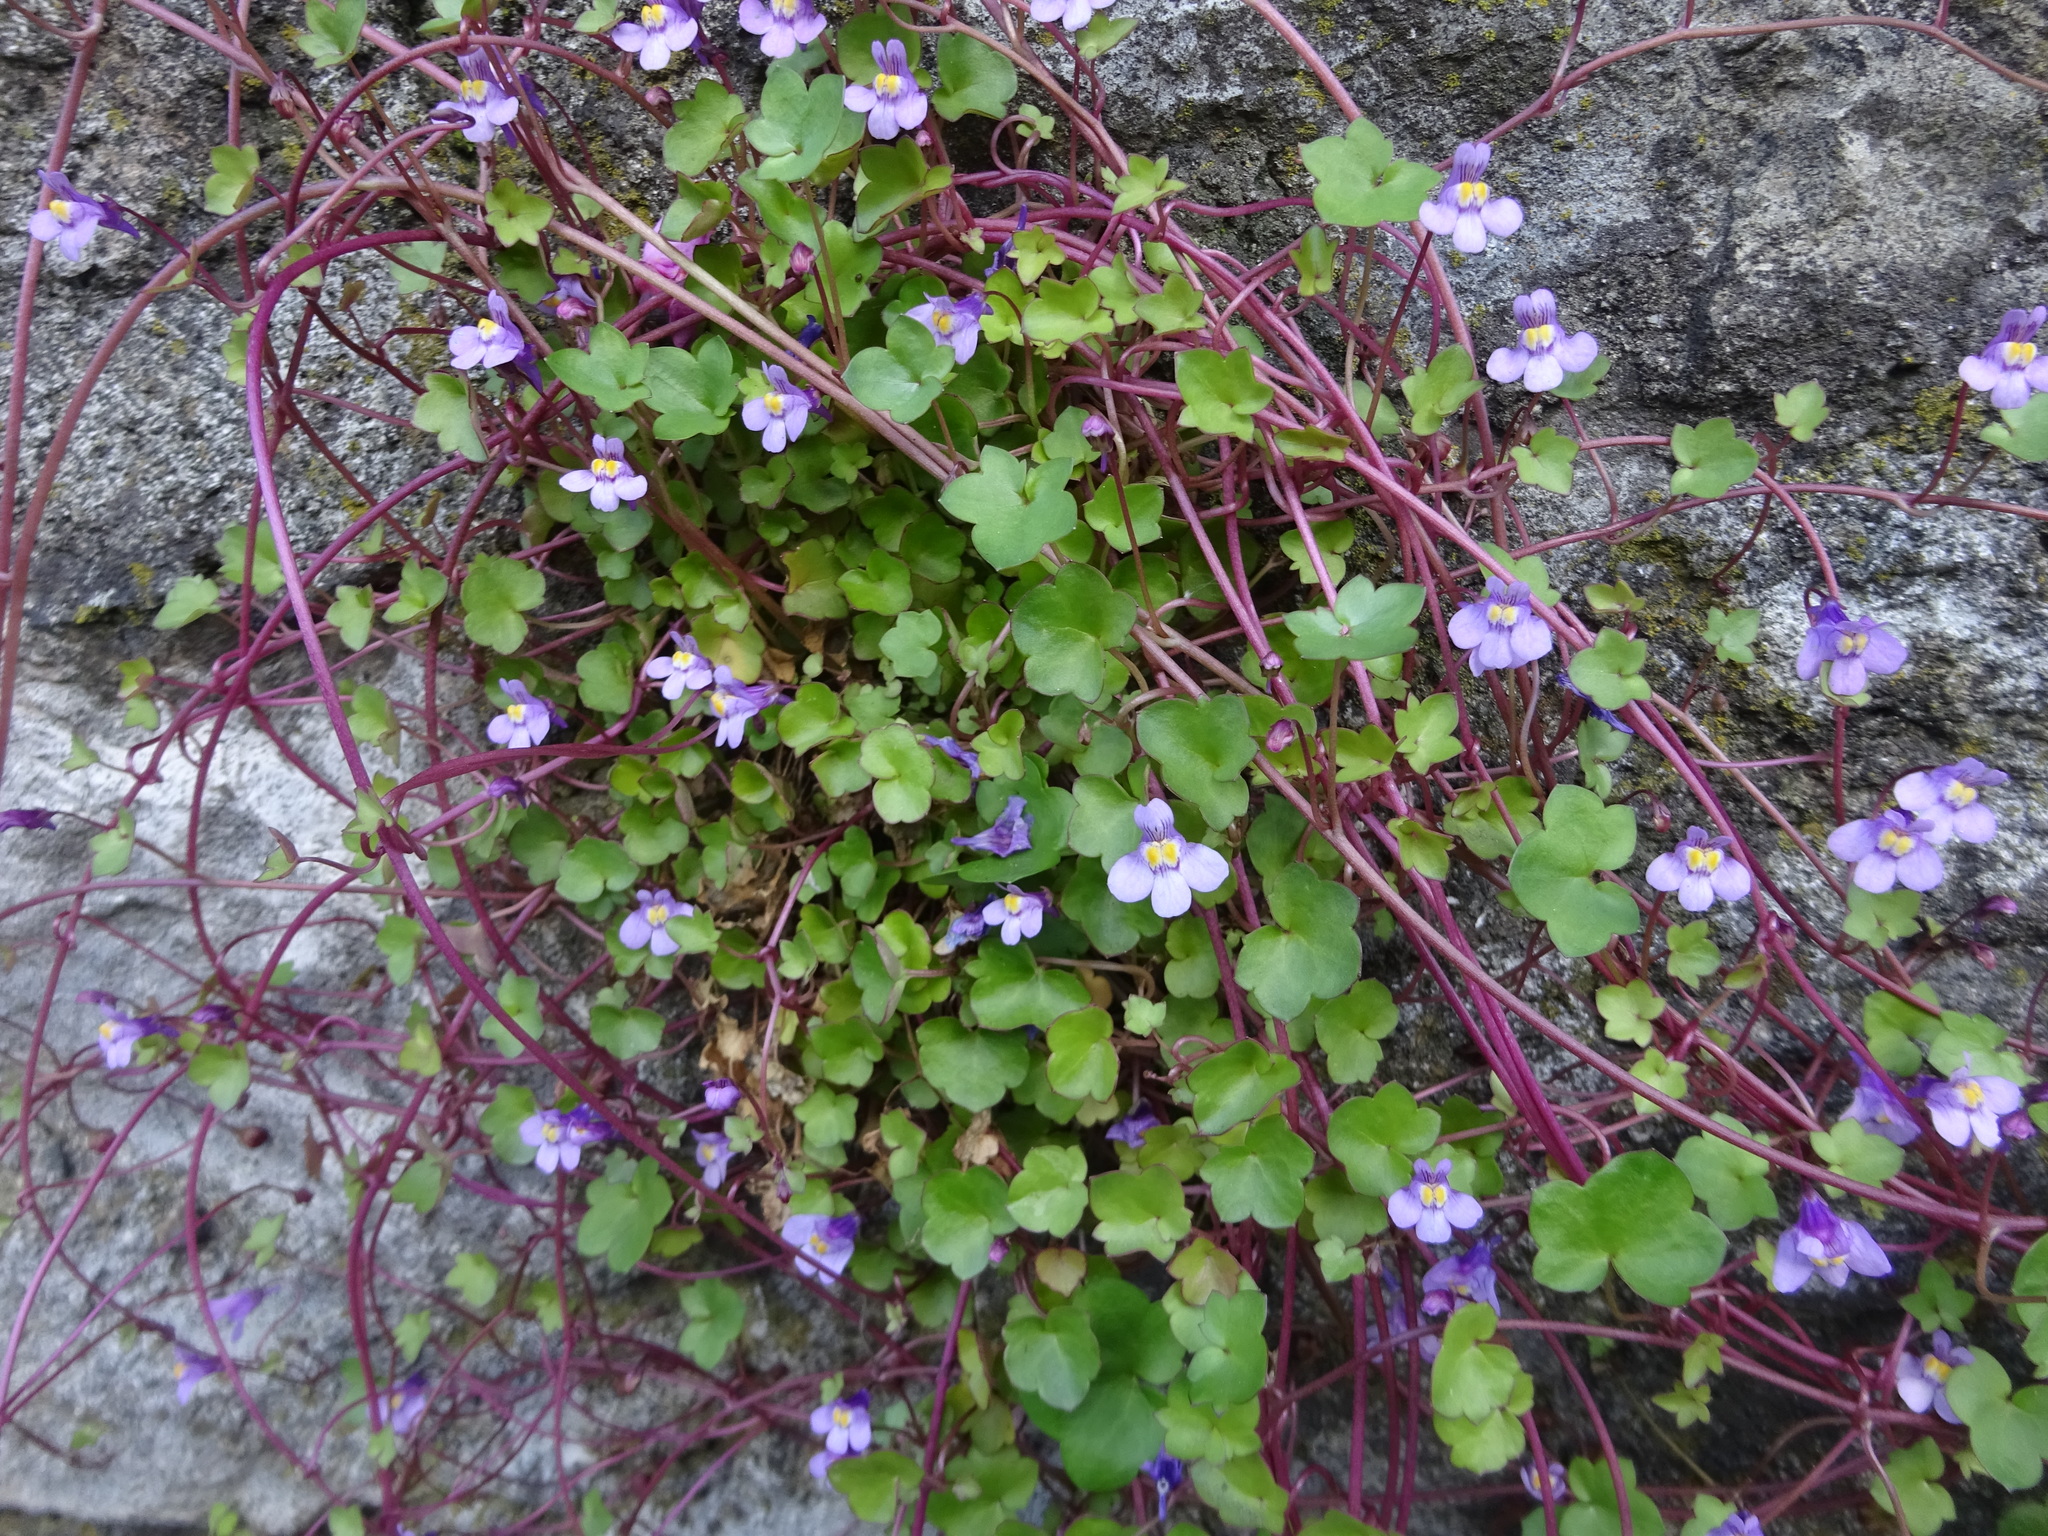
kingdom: Plantae
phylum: Tracheophyta
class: Magnoliopsida
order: Lamiales
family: Plantaginaceae
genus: Cymbalaria
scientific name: Cymbalaria muralis
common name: Ivy-leaved toadflax
